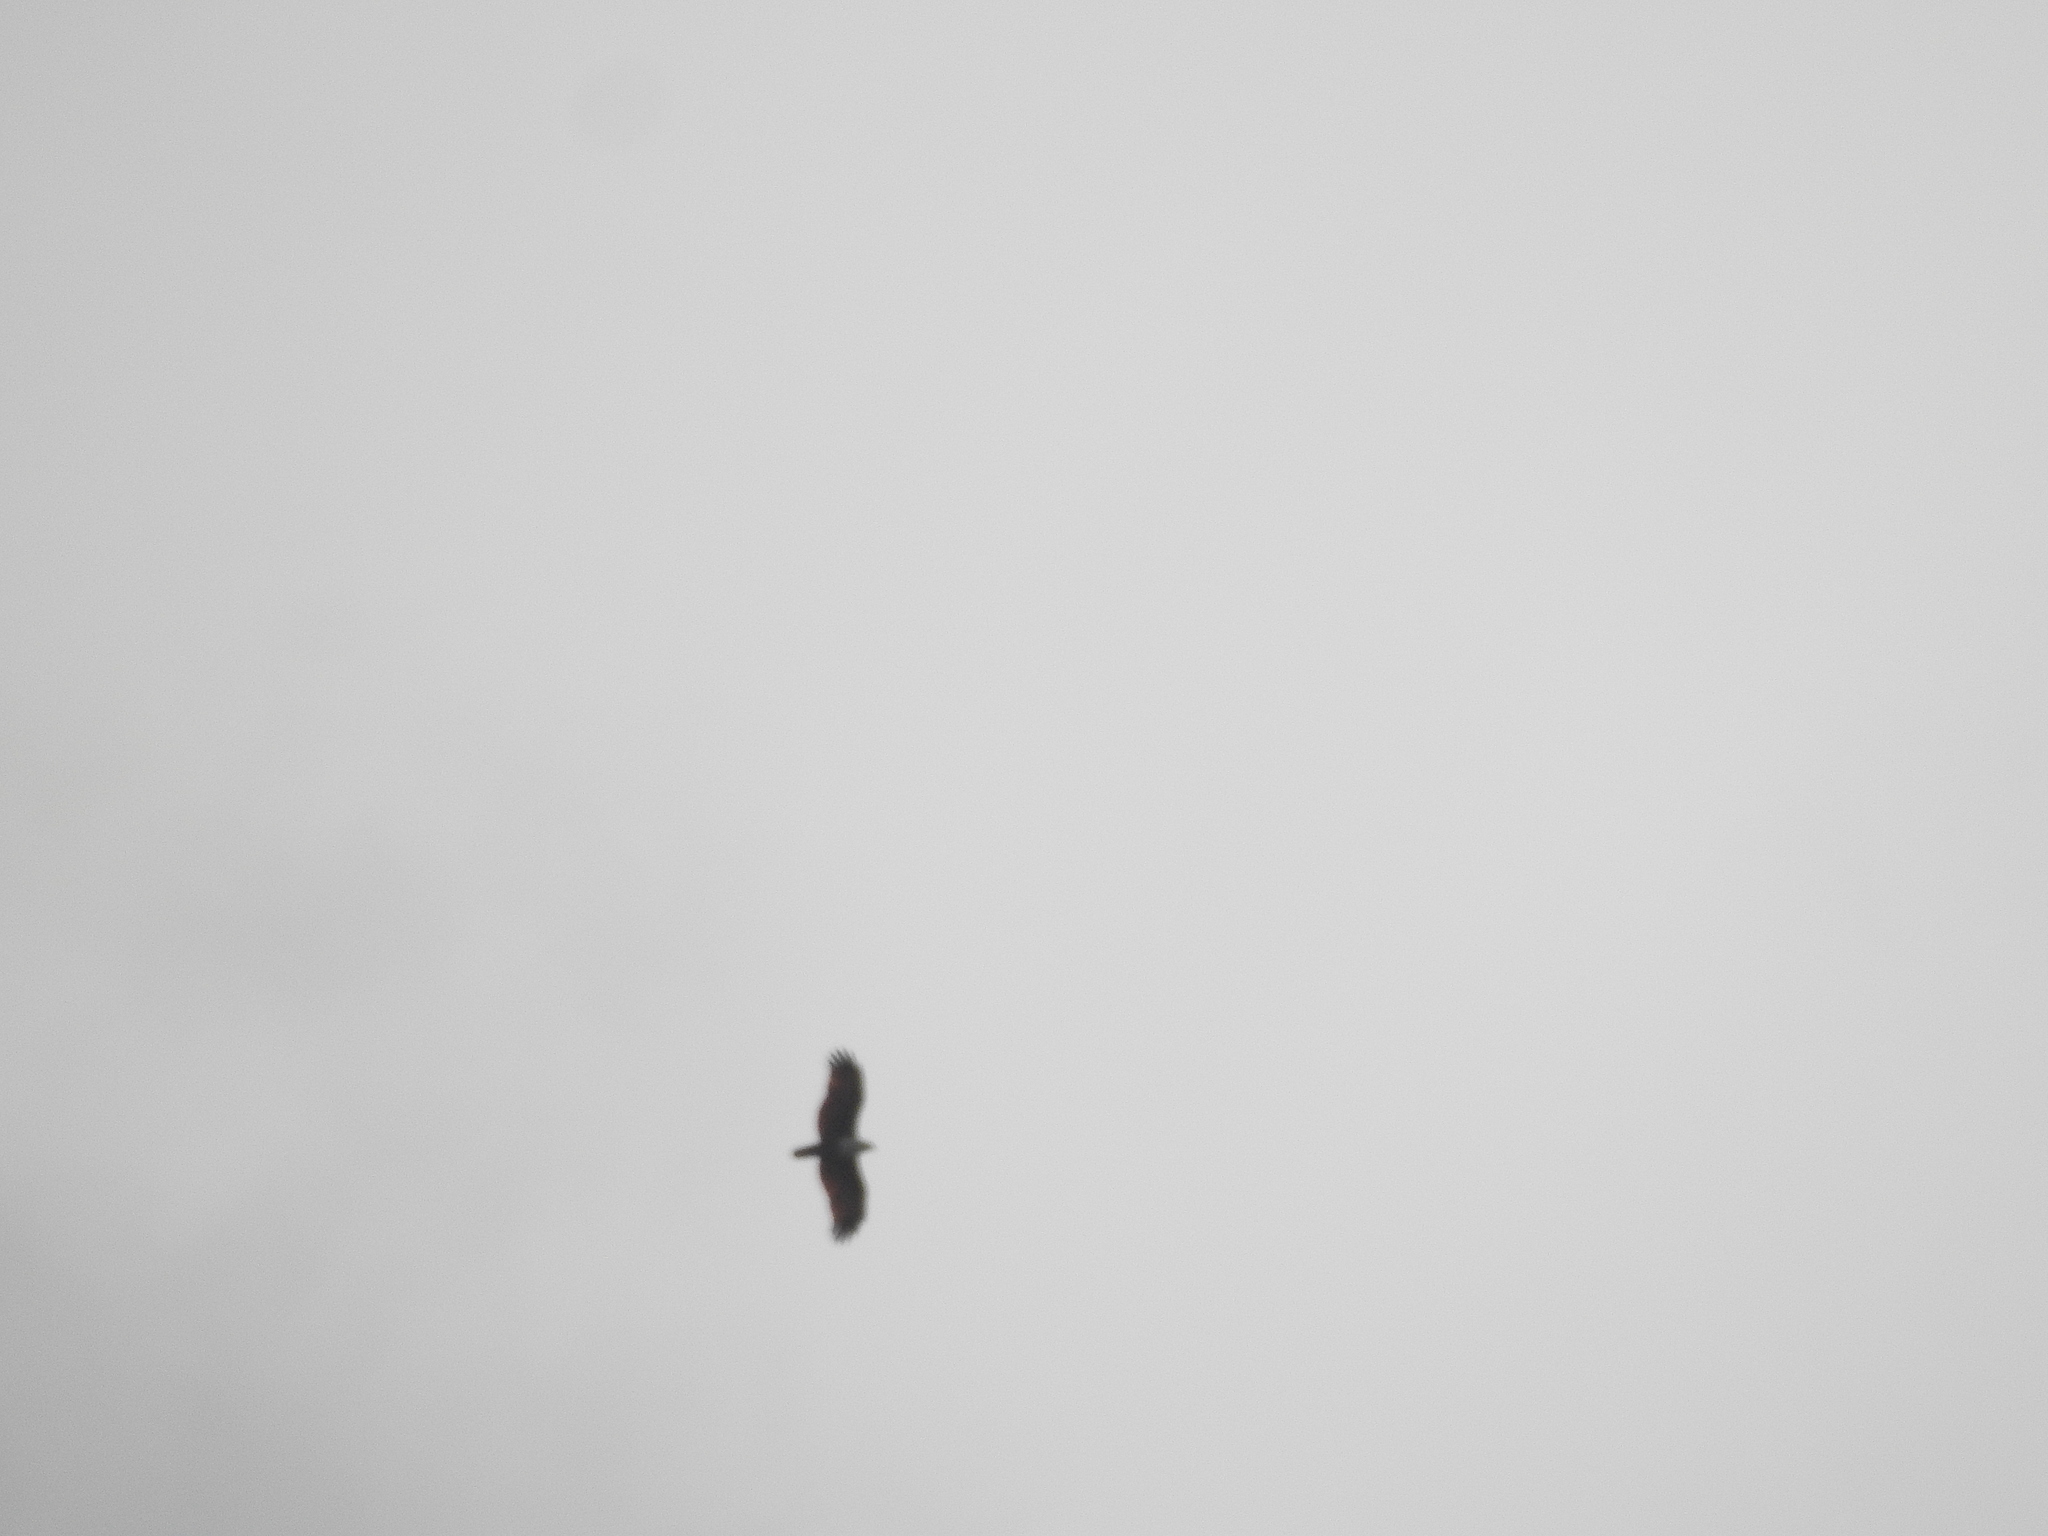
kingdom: Animalia
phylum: Chordata
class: Aves
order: Accipitriformes
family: Accipitridae
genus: Haliastur
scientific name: Haliastur indus
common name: Brahminy kite
